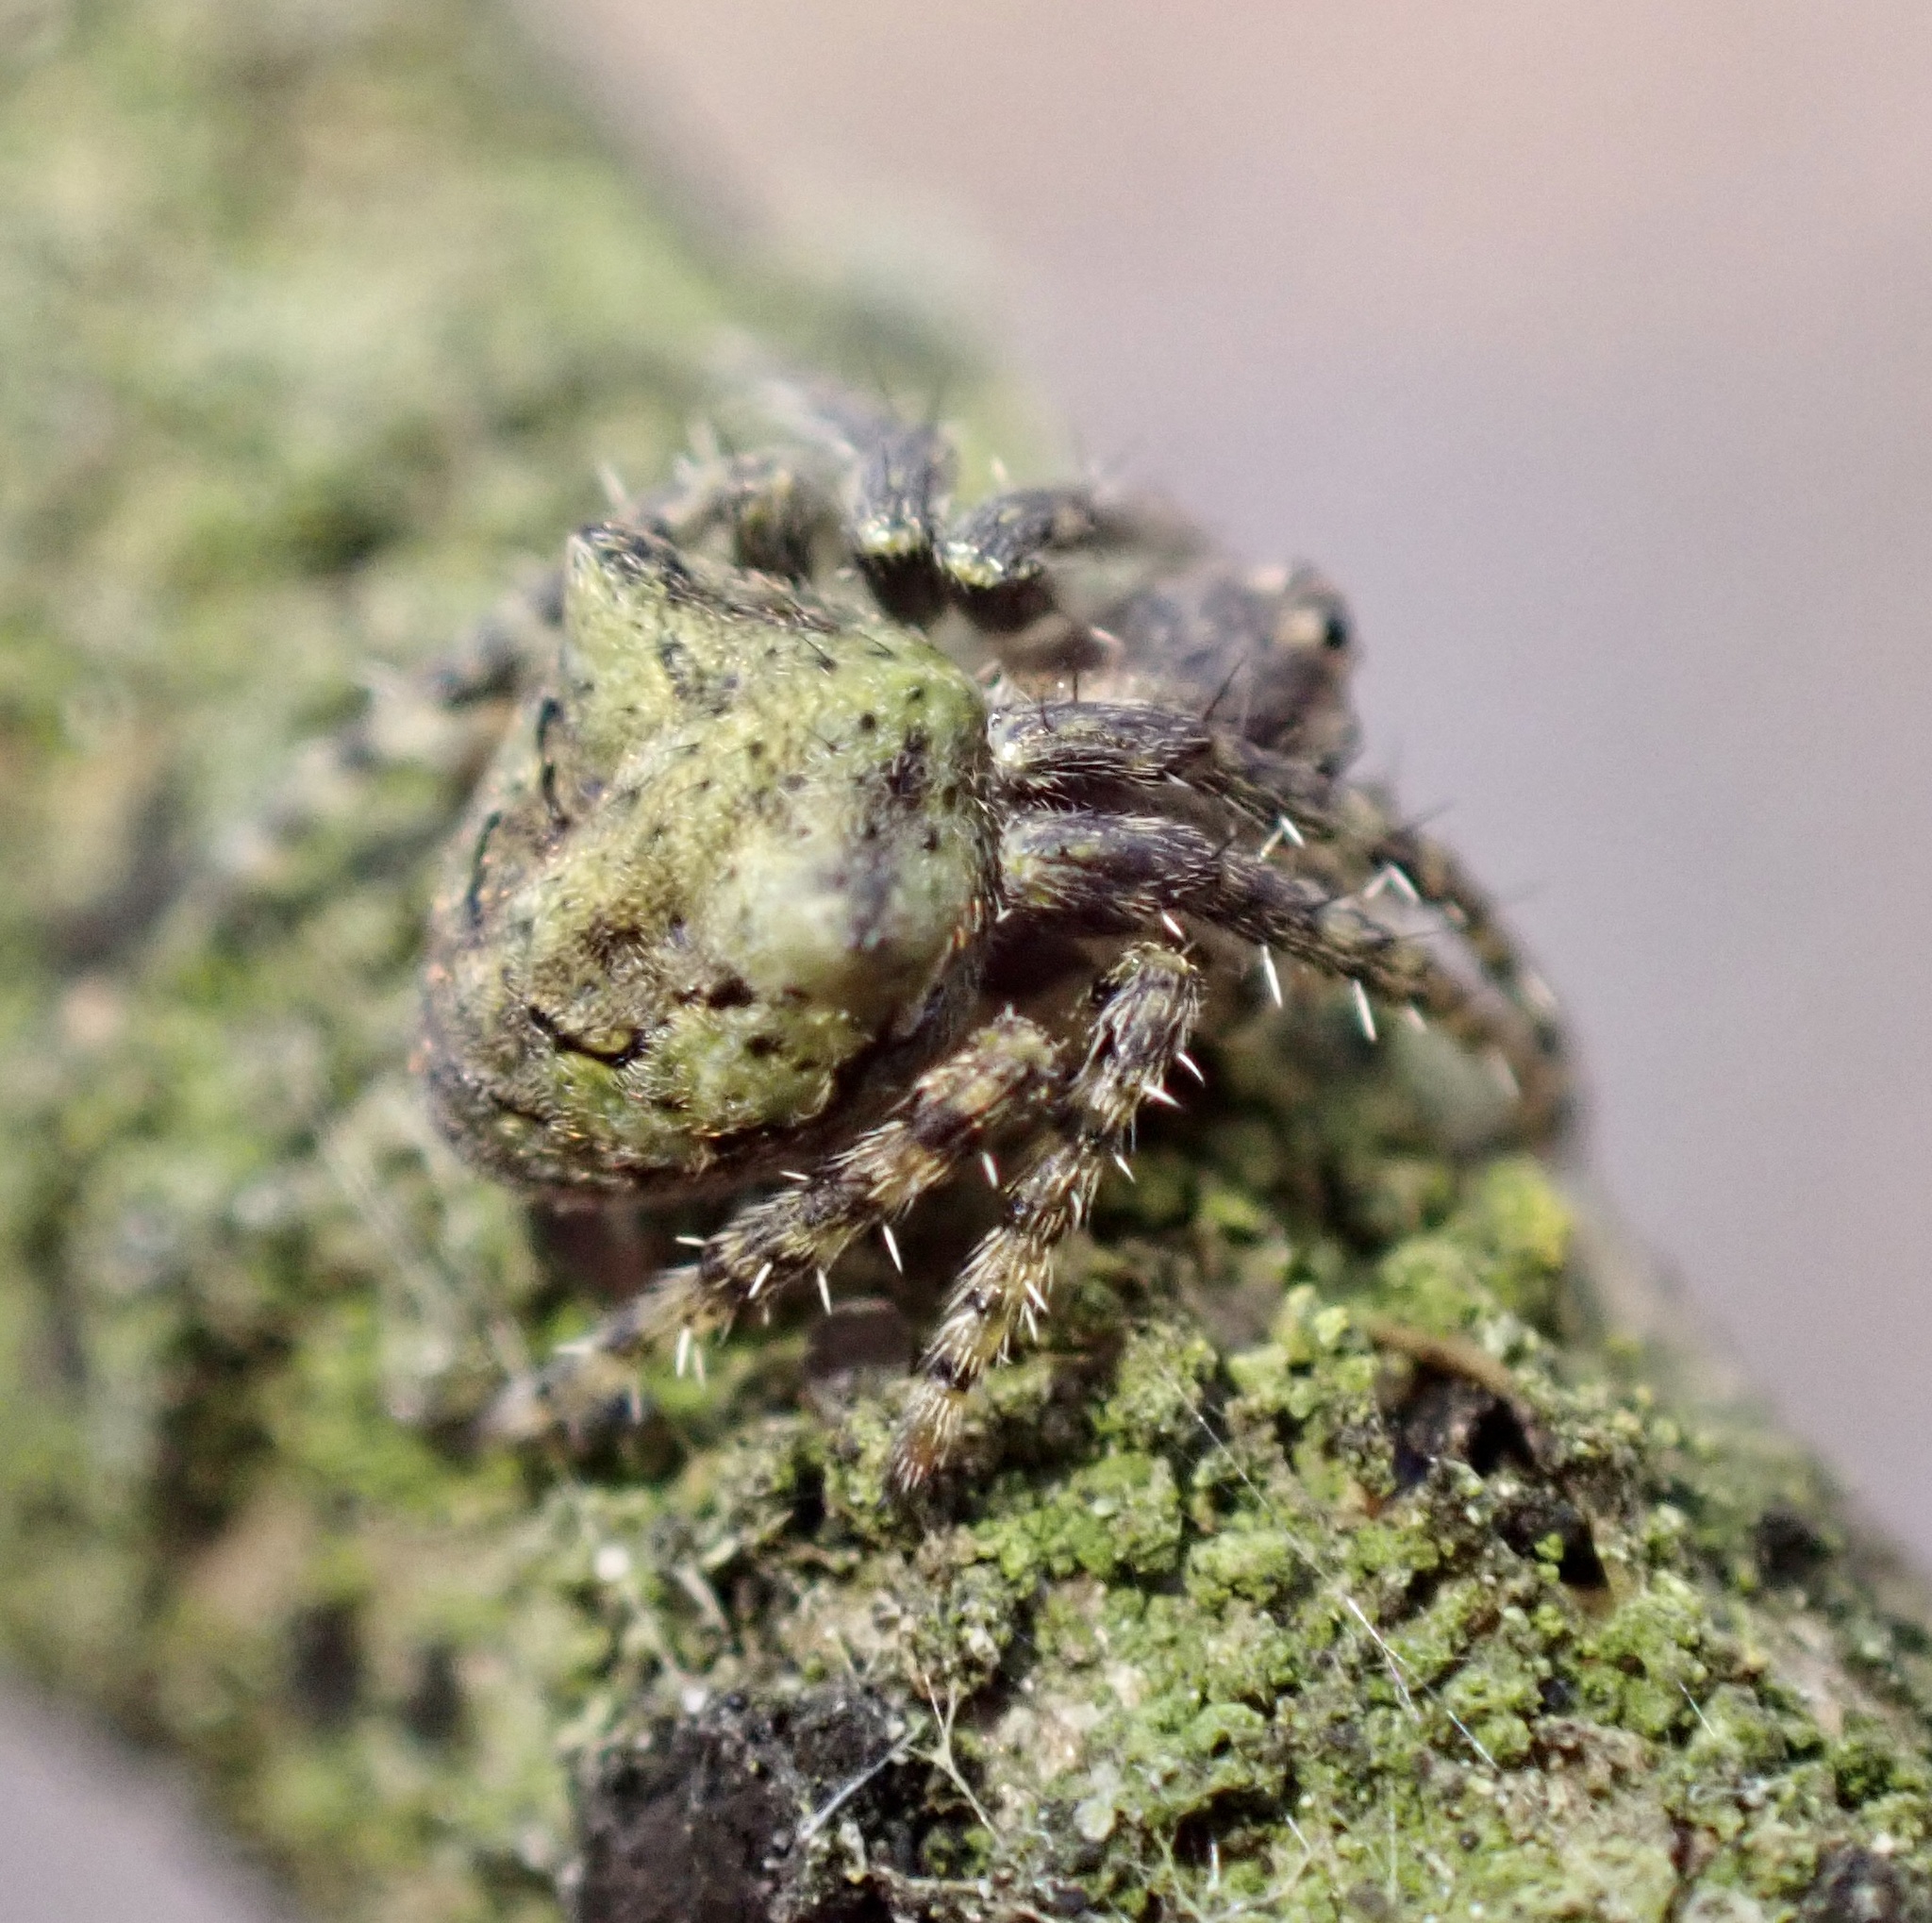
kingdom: Animalia
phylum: Arthropoda
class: Arachnida
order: Araneae
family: Araneidae
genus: Gibbaranea
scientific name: Gibbaranea gibbosa
